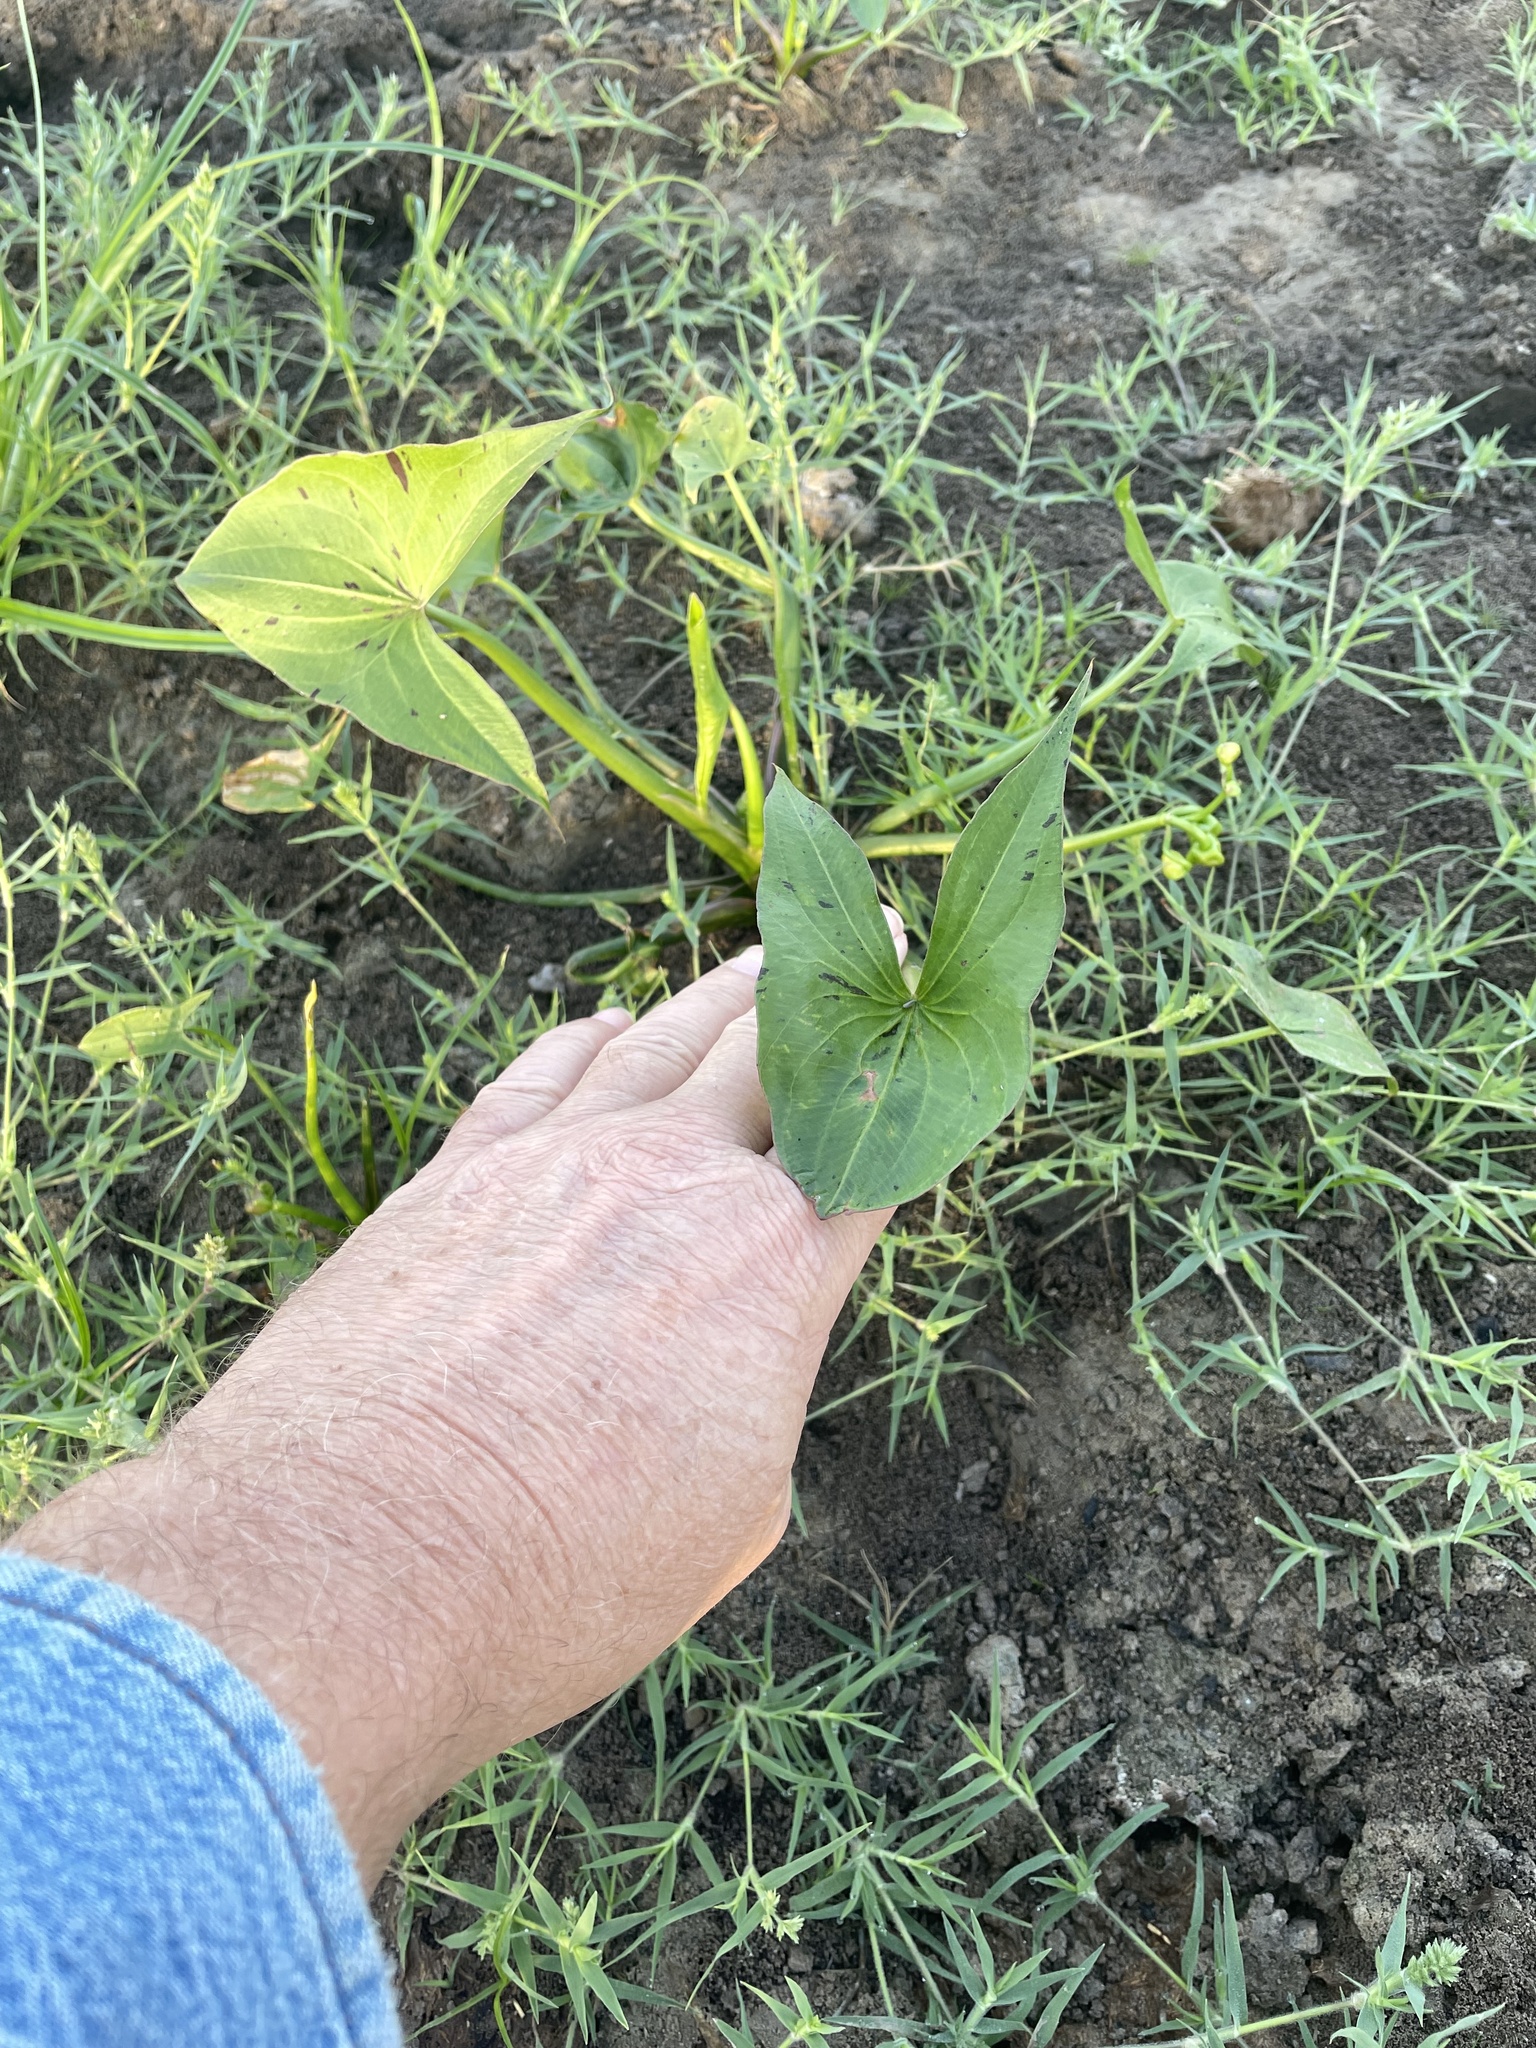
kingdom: Plantae
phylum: Tracheophyta
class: Liliopsida
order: Alismatales
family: Alismataceae
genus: Sagittaria
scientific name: Sagittaria calycina
